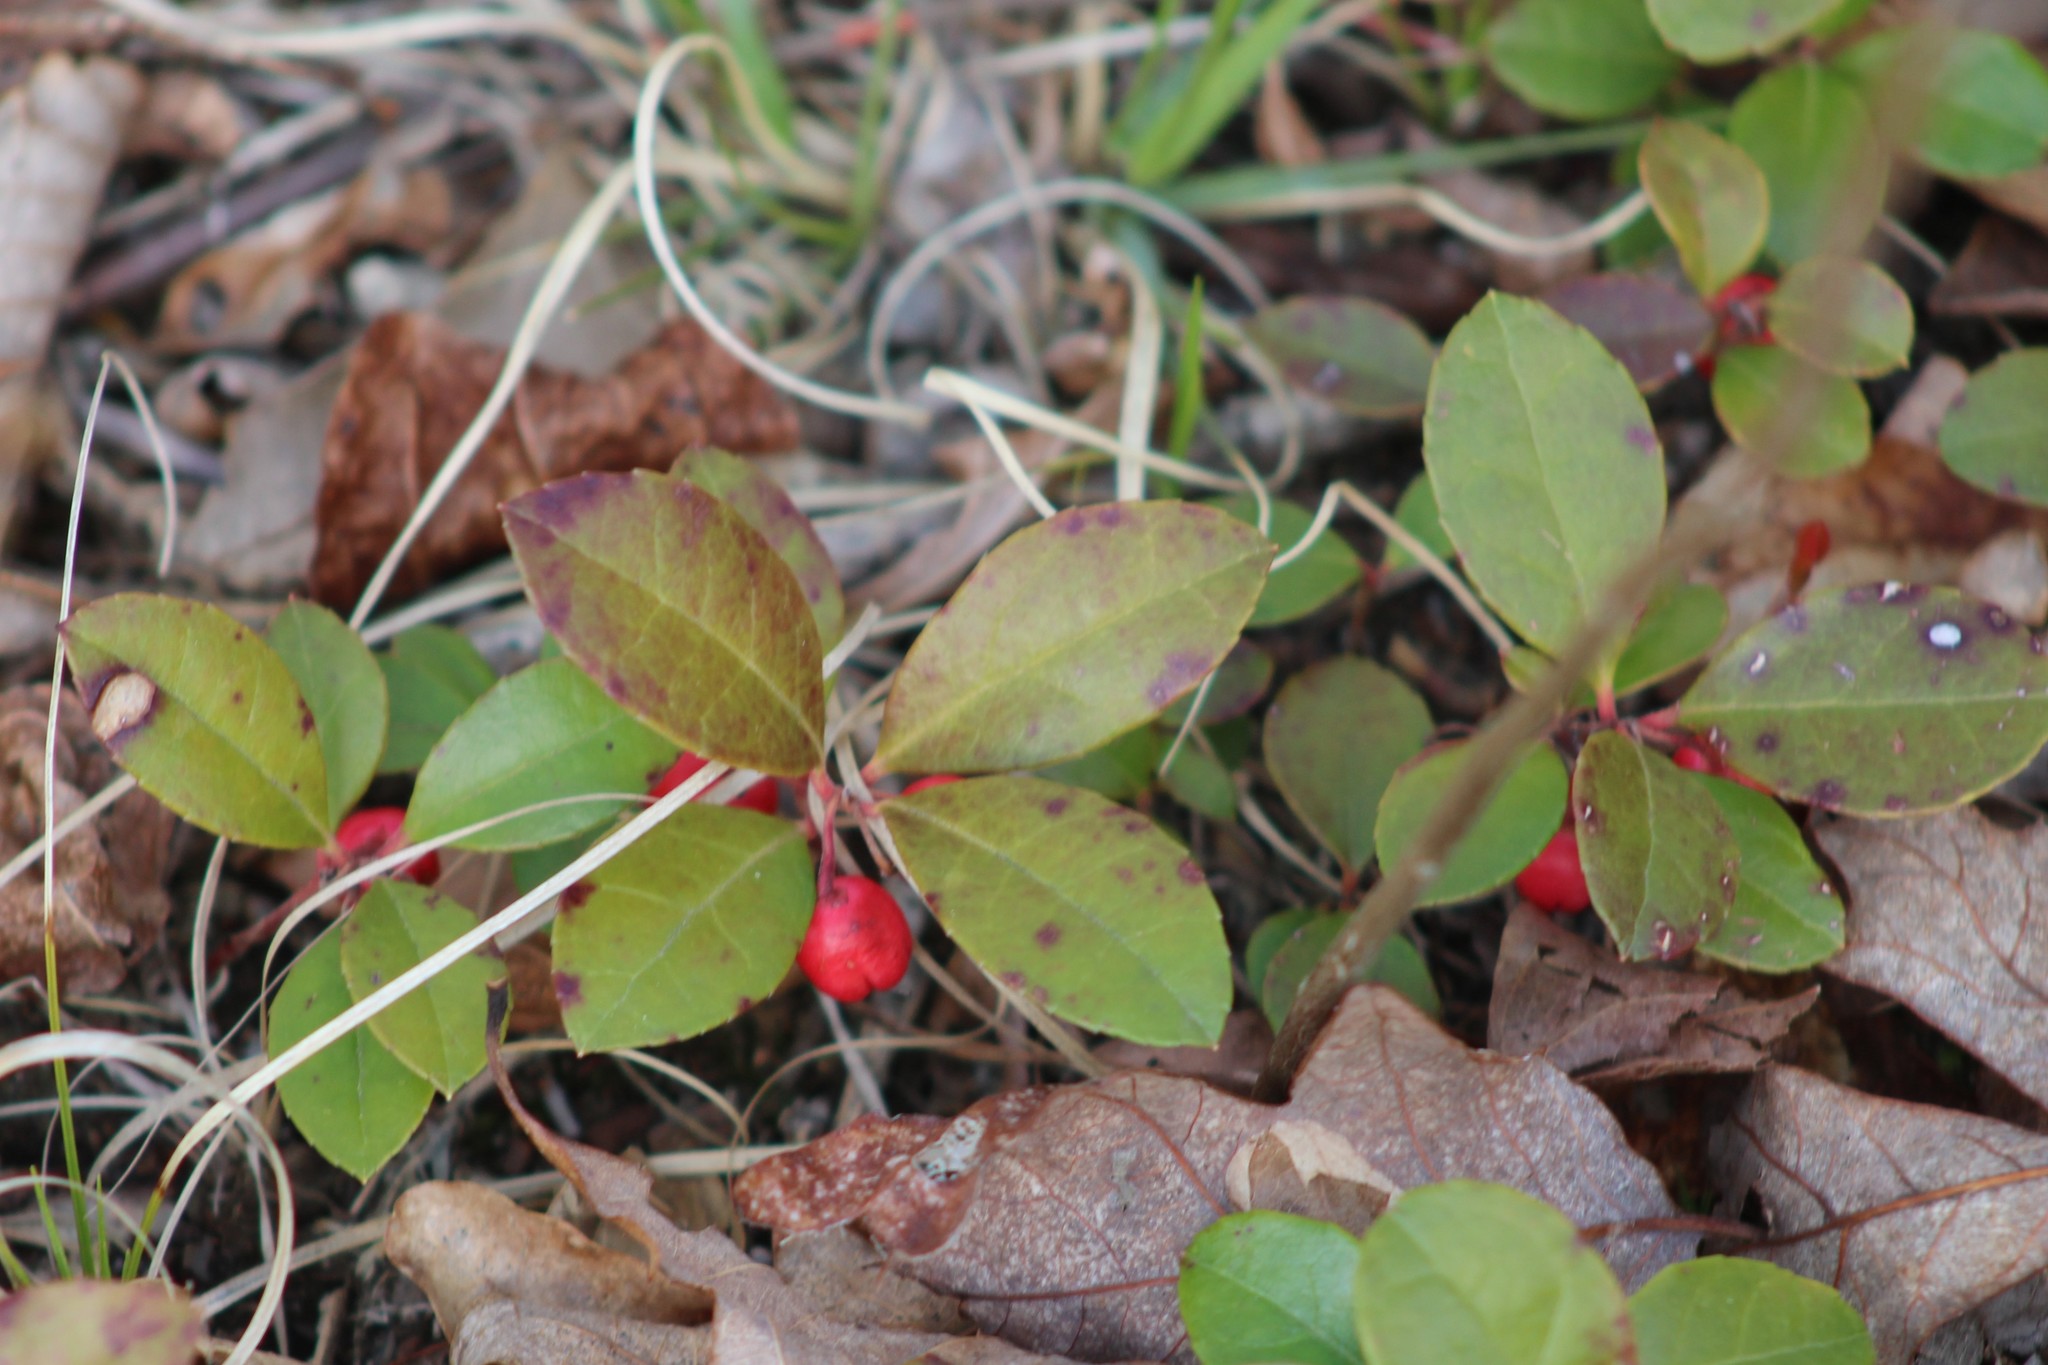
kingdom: Plantae
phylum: Tracheophyta
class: Magnoliopsida
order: Ericales
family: Ericaceae
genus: Gaultheria
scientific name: Gaultheria procumbens
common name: Checkerberry
